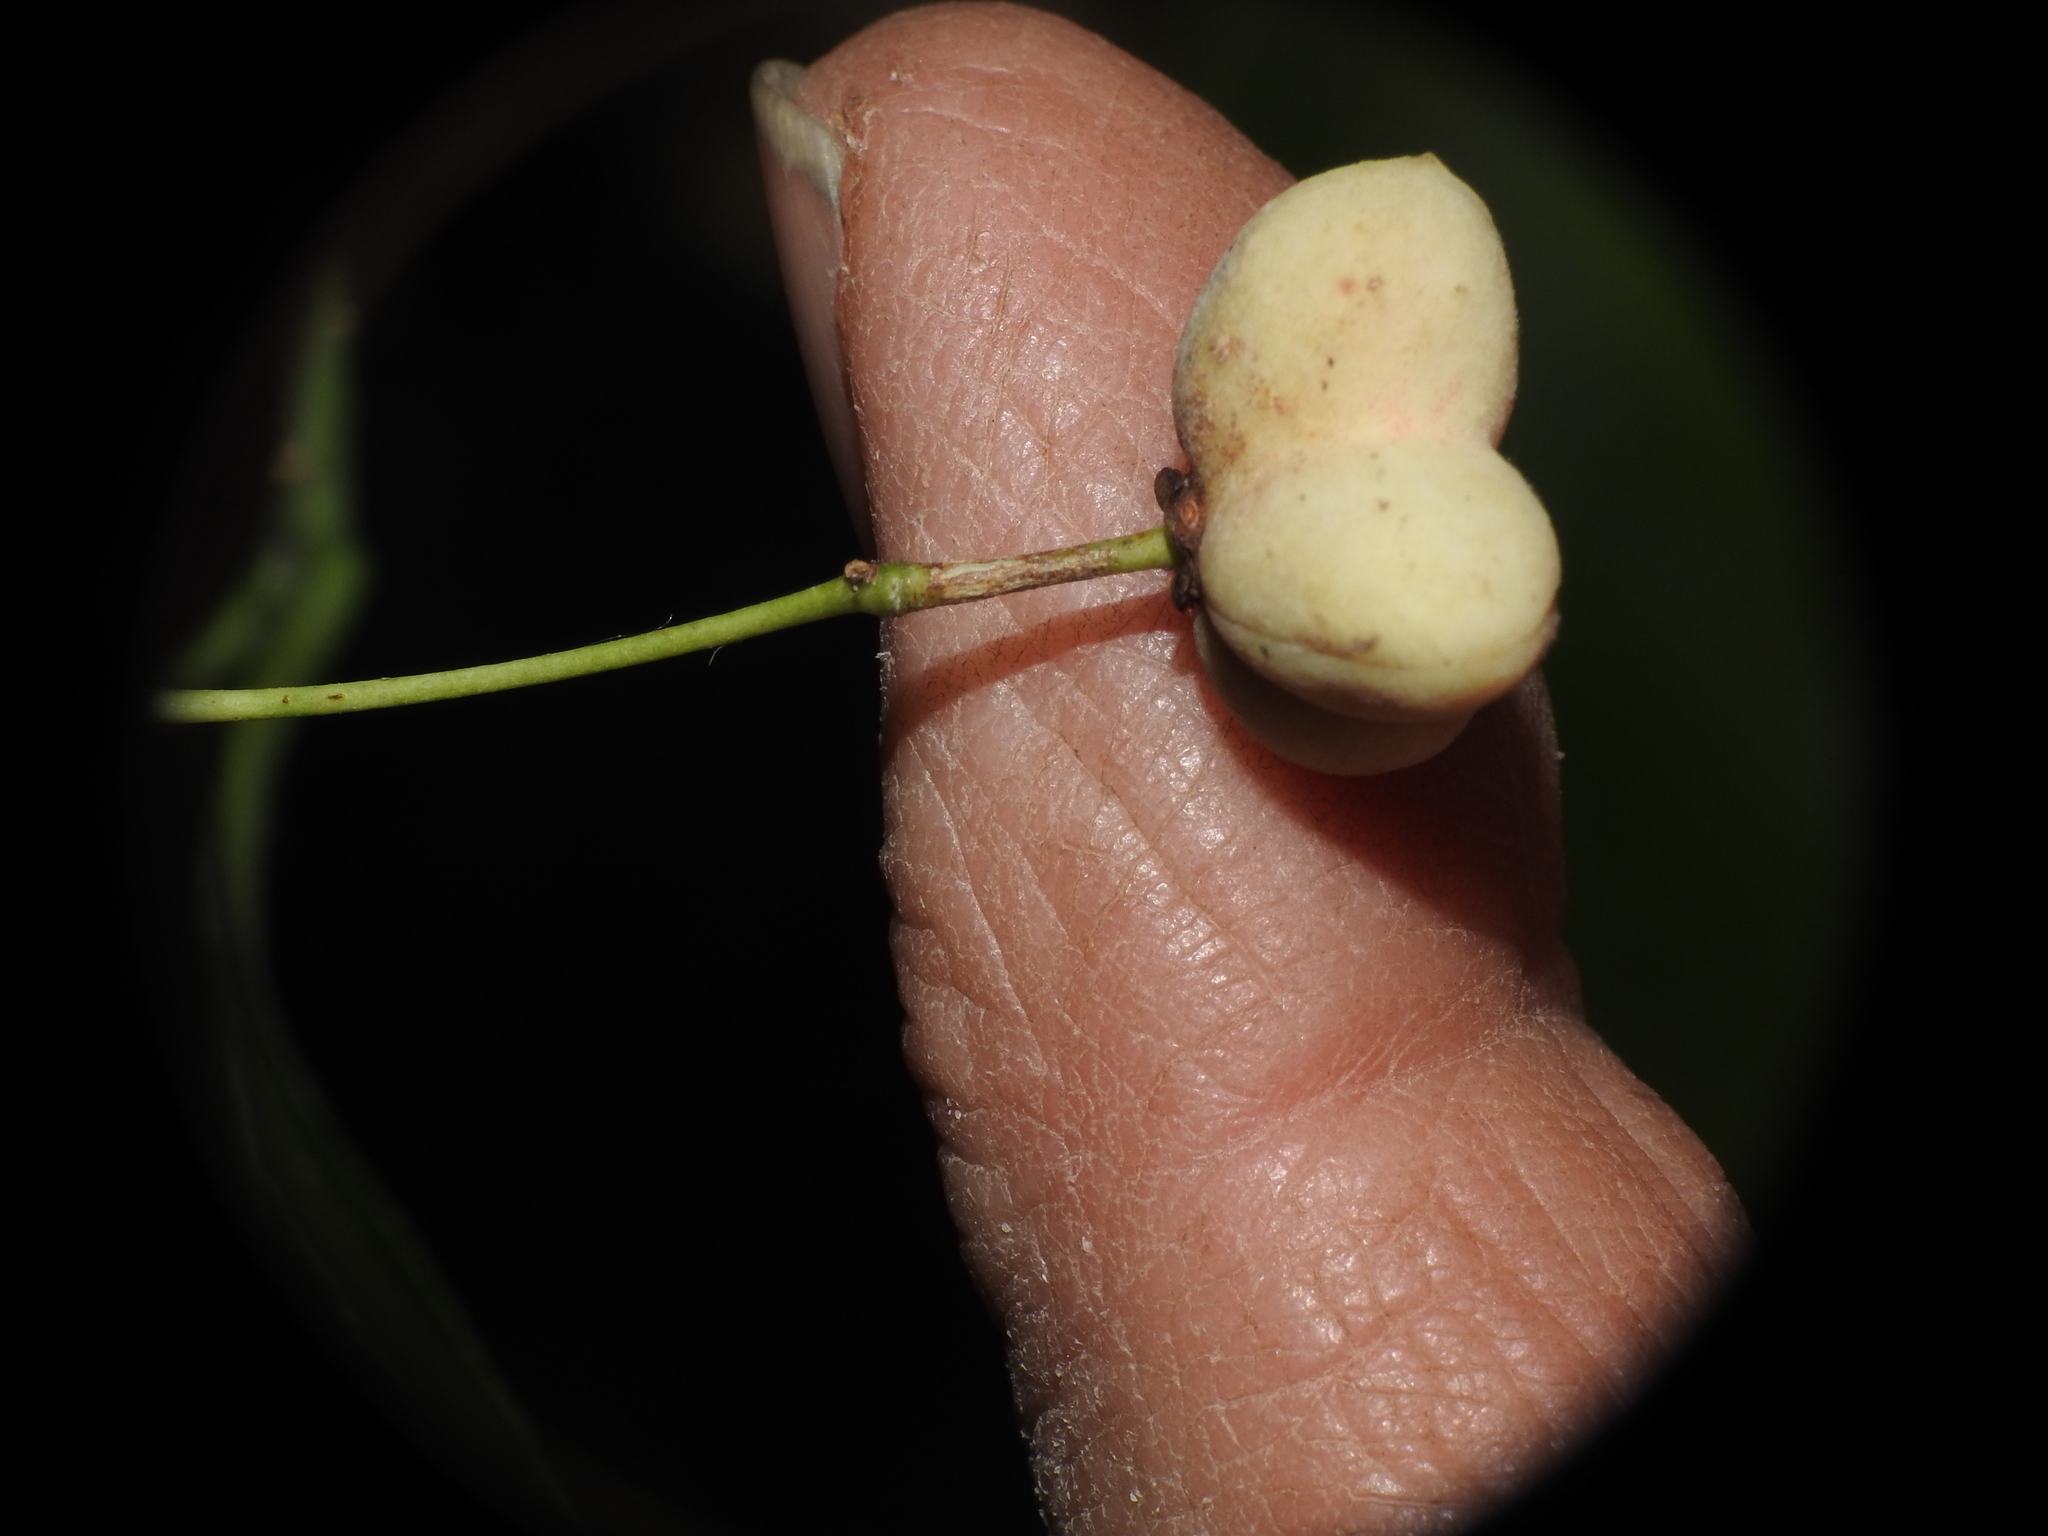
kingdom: Plantae
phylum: Tracheophyta
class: Magnoliopsida
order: Celastrales
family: Celastraceae
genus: Euonymus
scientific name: Euonymus atropurpureus
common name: Eastern wahoo
